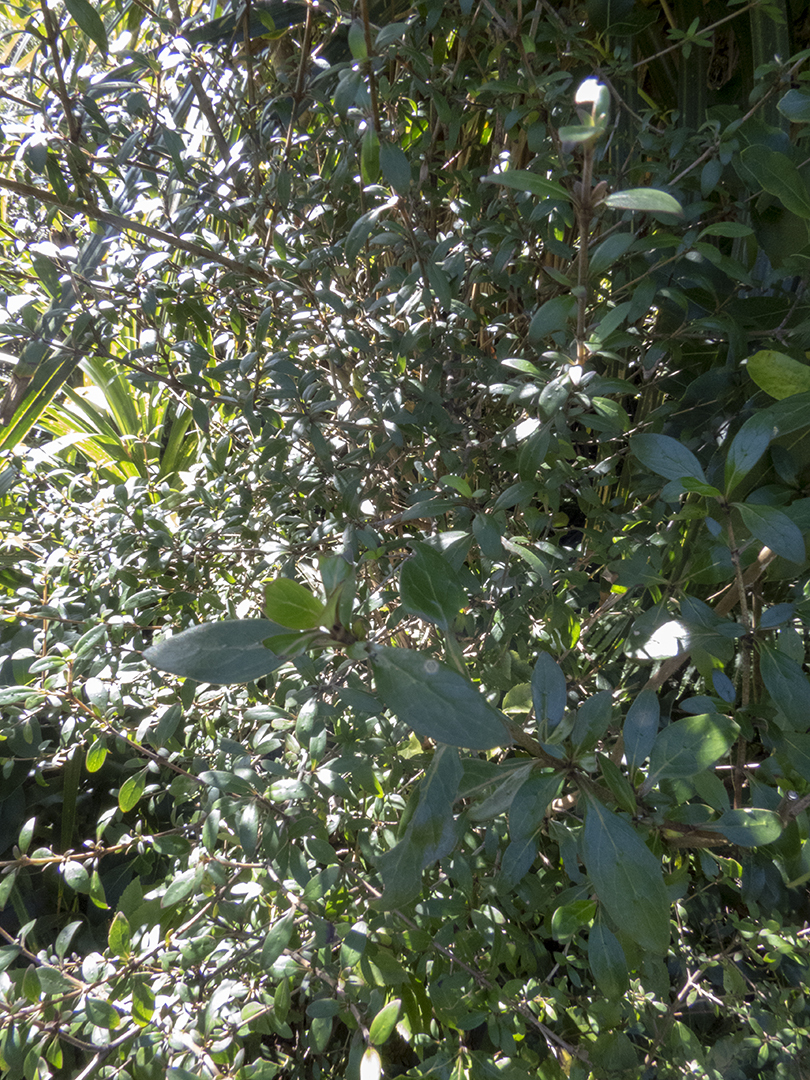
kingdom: Plantae
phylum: Tracheophyta
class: Magnoliopsida
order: Gentianales
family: Rubiaceae
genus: Coprosma
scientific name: Coprosma cunninghamii
